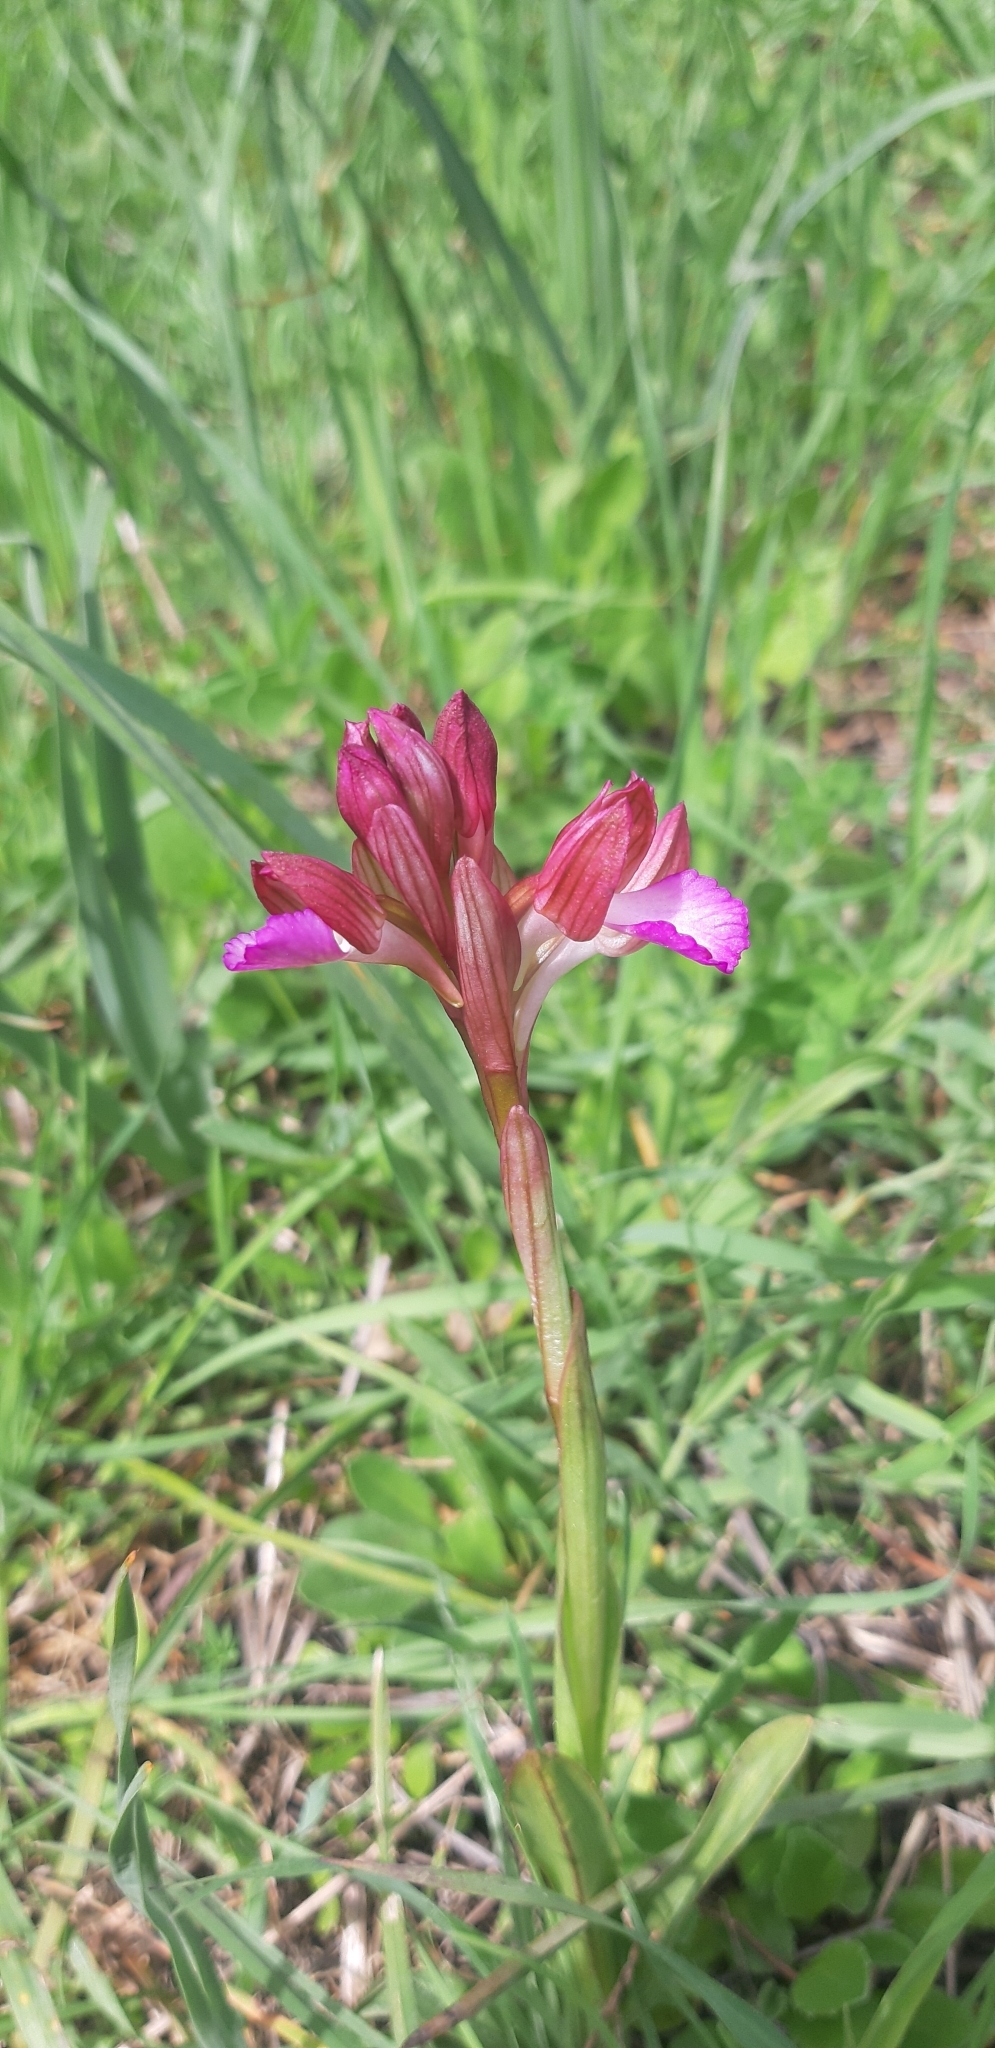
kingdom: Plantae
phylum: Tracheophyta
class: Liliopsida
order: Asparagales
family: Orchidaceae
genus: Anacamptis
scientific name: Anacamptis papilionacea
